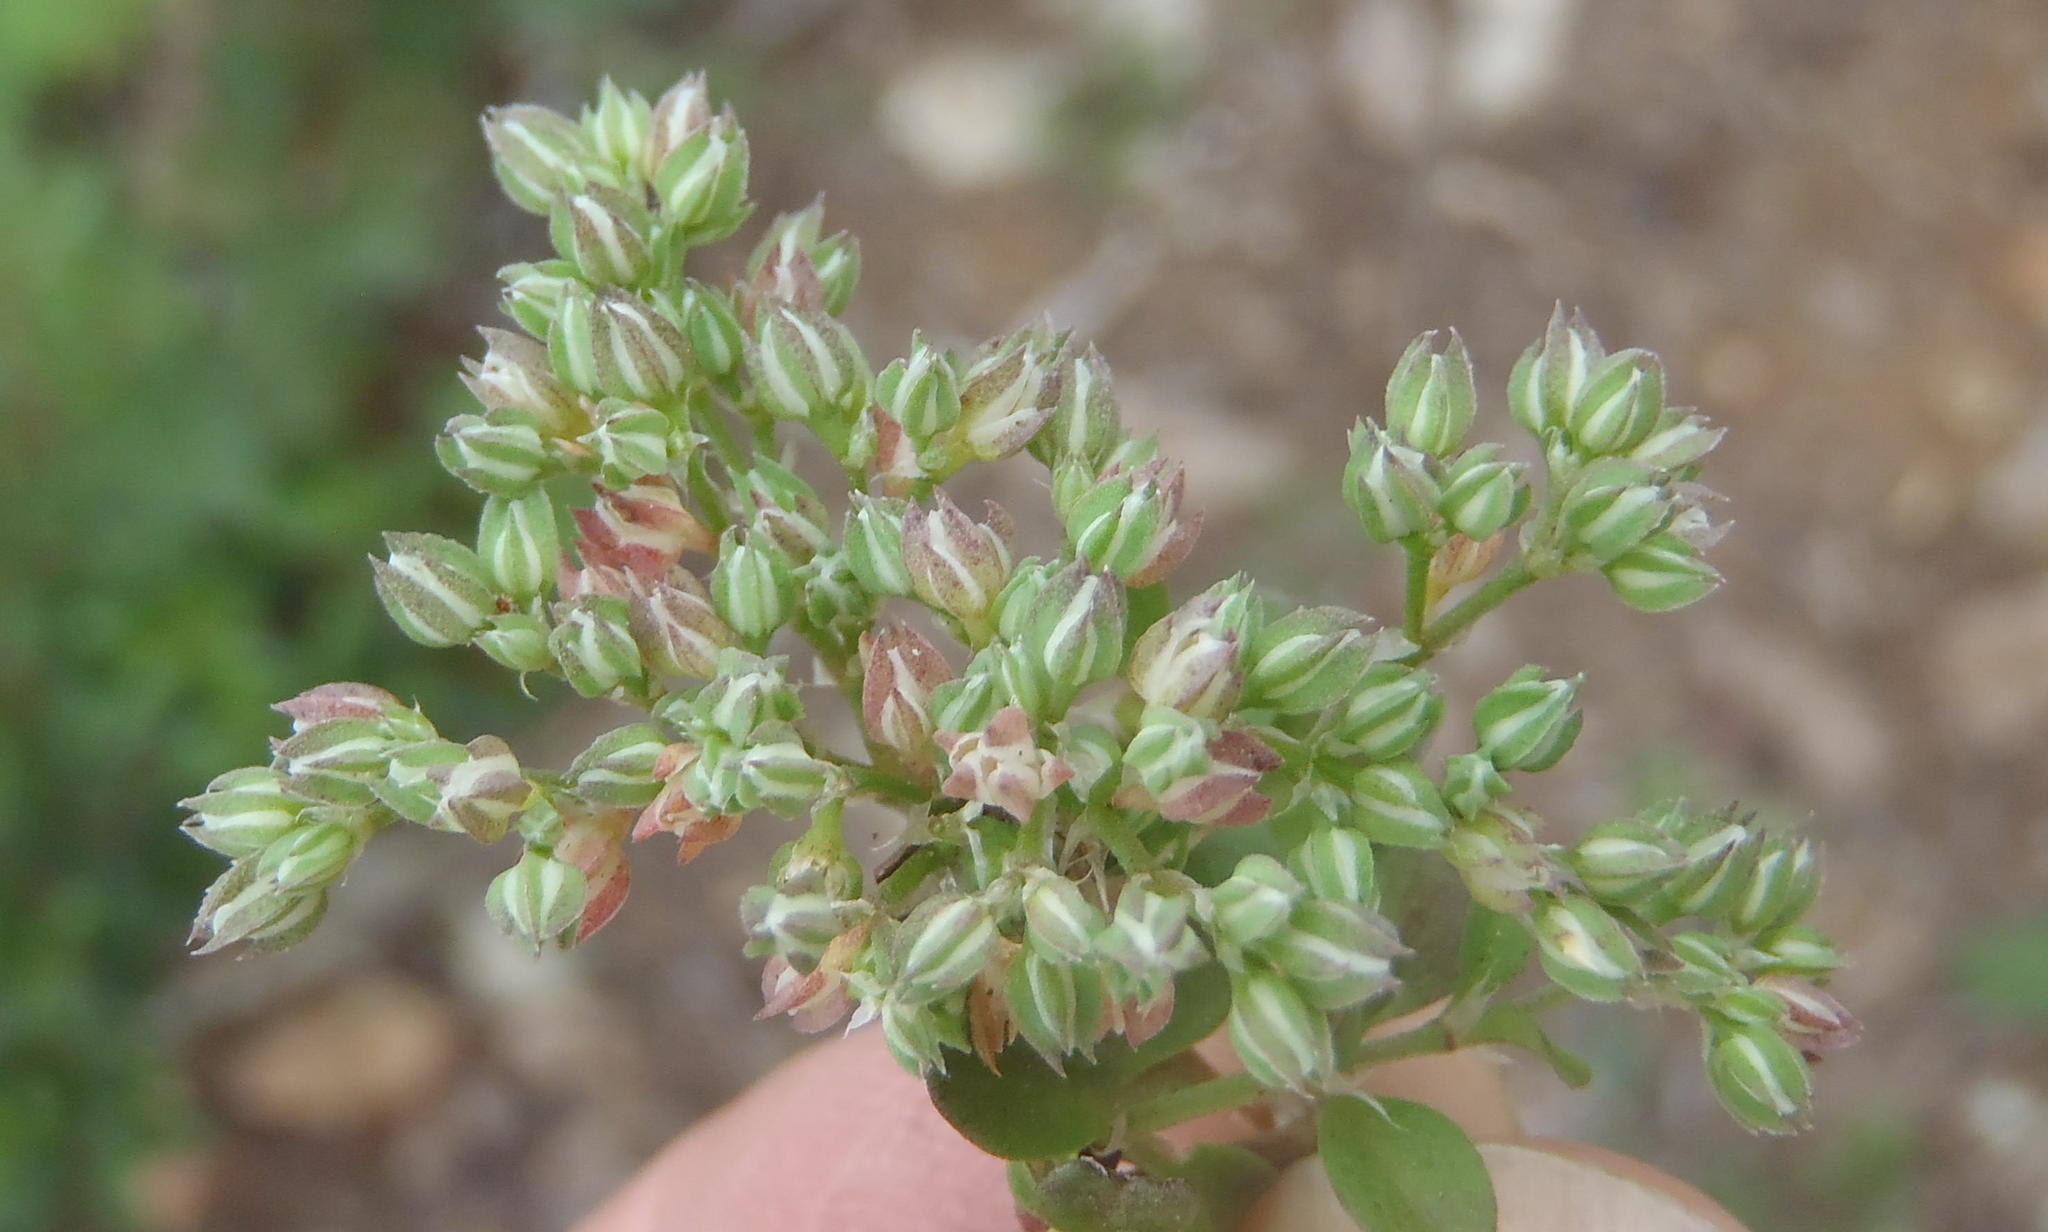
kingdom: Plantae
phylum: Tracheophyta
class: Magnoliopsida
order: Caryophyllales
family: Caryophyllaceae
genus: Polycarpon
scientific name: Polycarpon tetraphyllum
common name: Four-leaved all-seed
